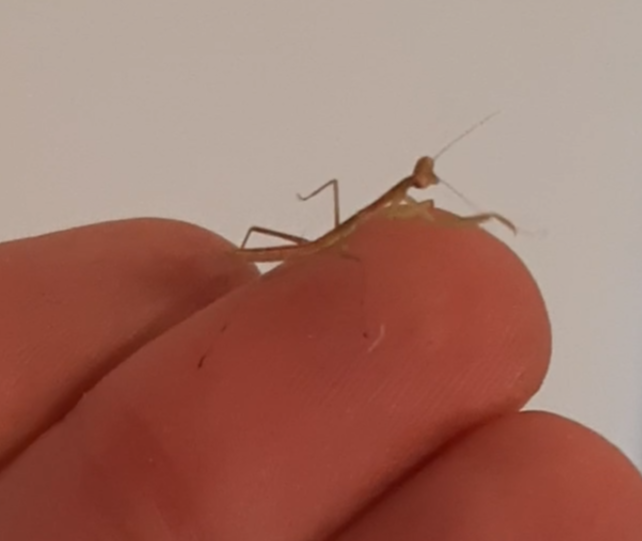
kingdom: Animalia
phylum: Arthropoda
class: Insecta
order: Mantodea
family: Miomantidae
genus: Miomantis
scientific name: Miomantis caffra
